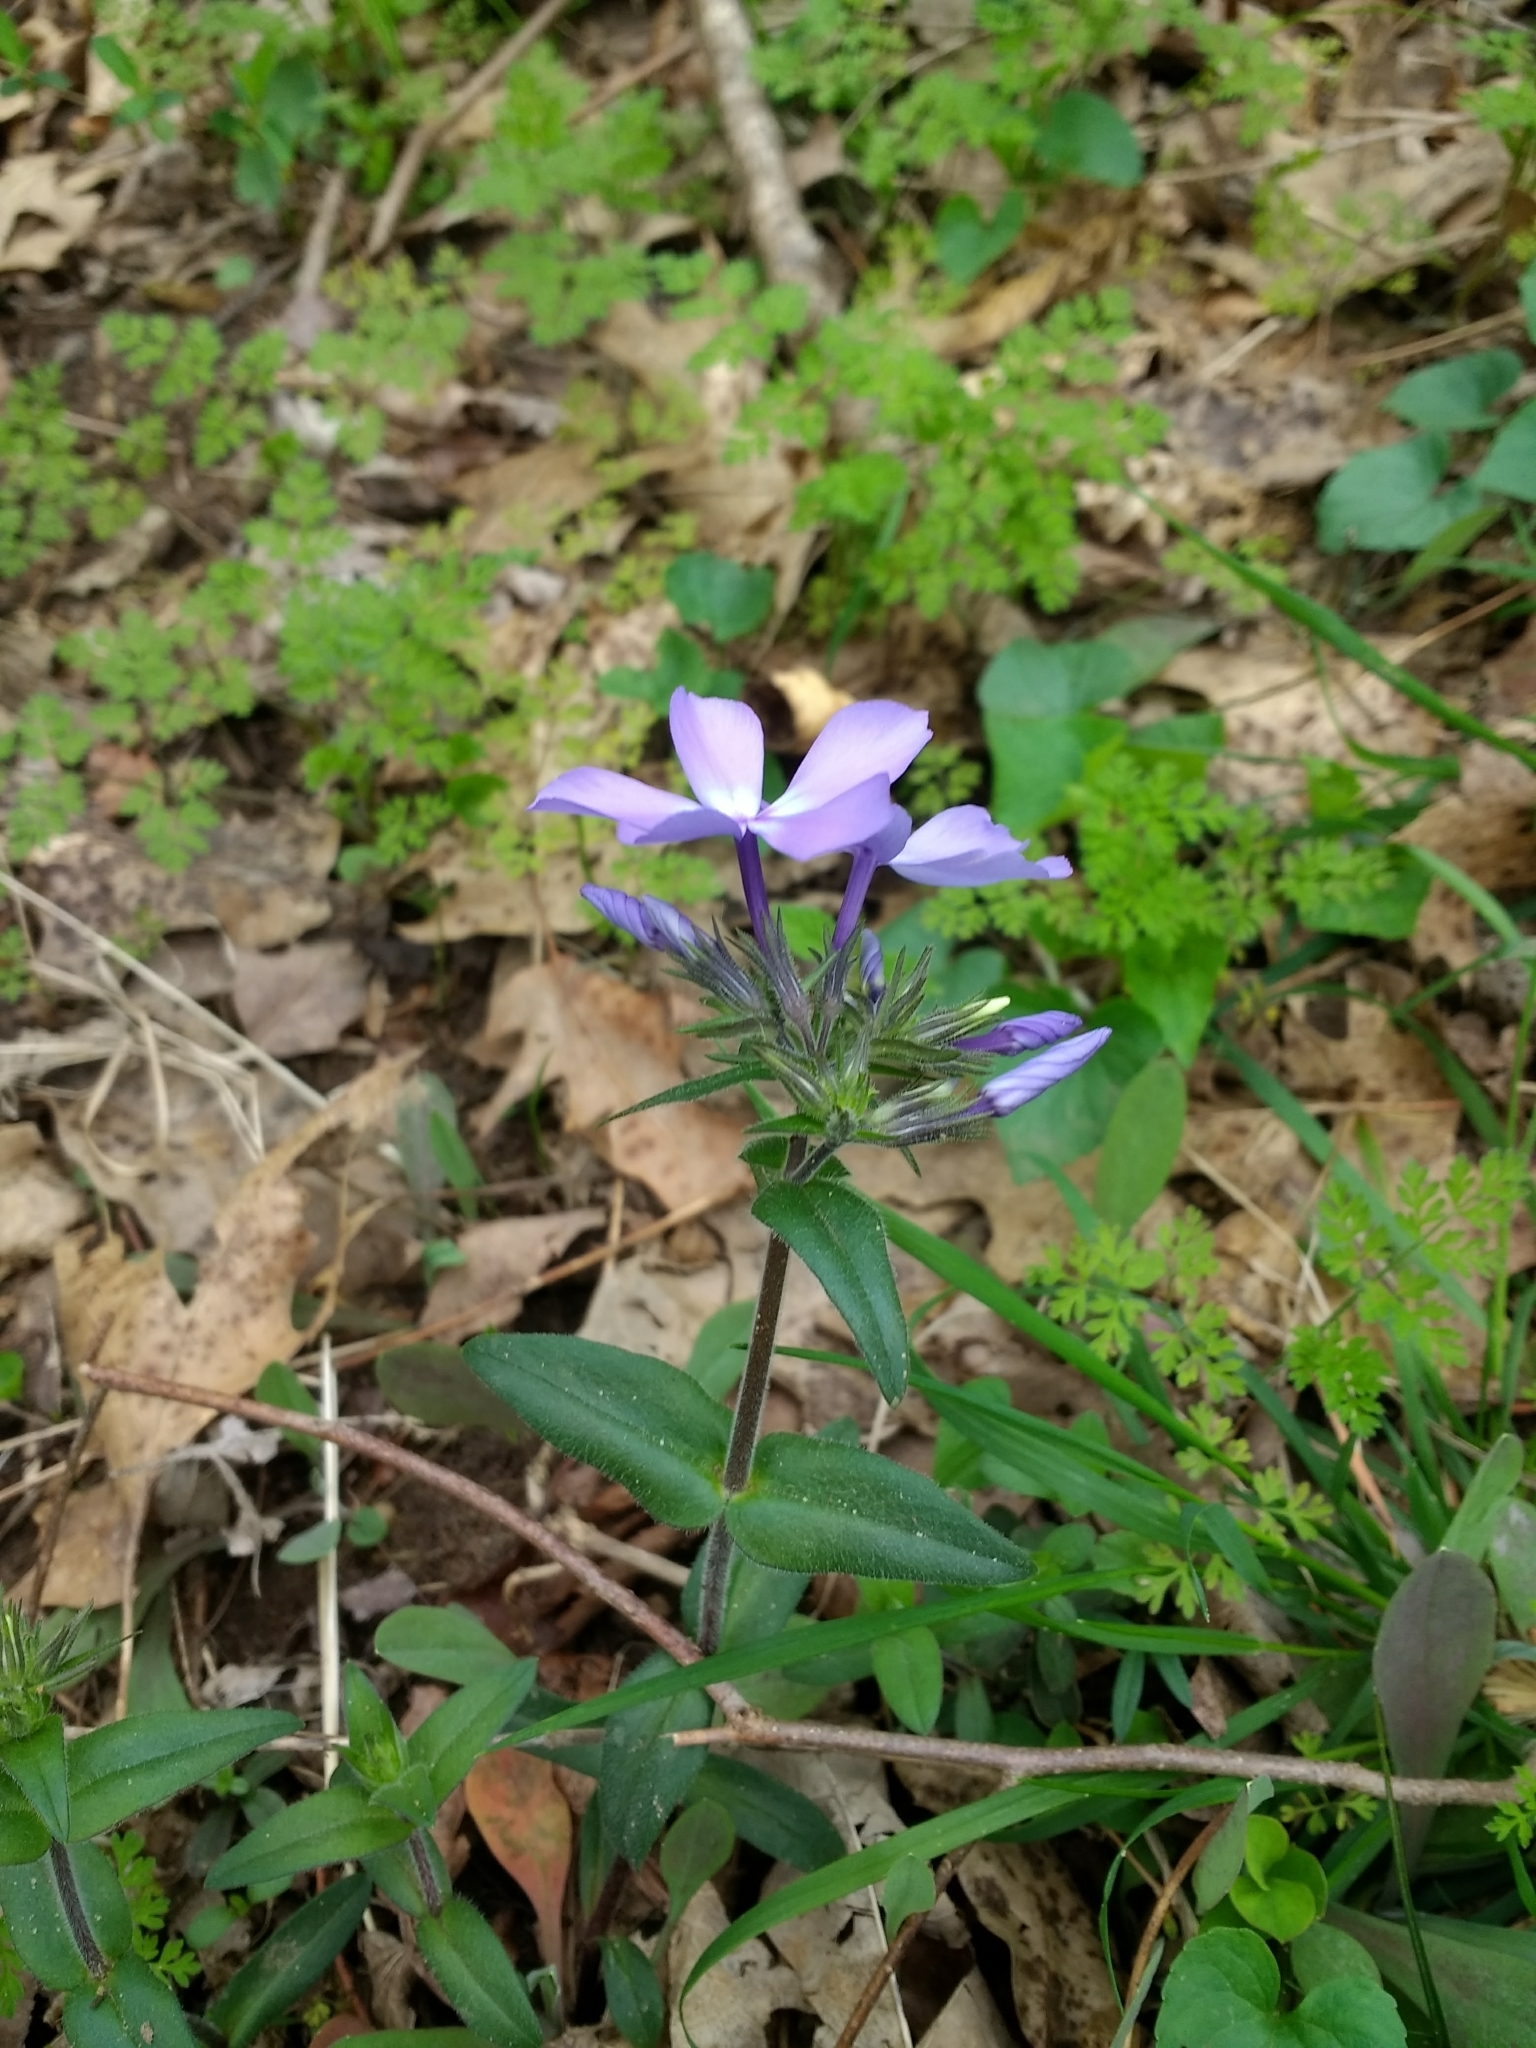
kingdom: Plantae
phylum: Tracheophyta
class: Magnoliopsida
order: Ericales
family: Polemoniaceae
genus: Phlox
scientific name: Phlox divaricata
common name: Blue phlox
